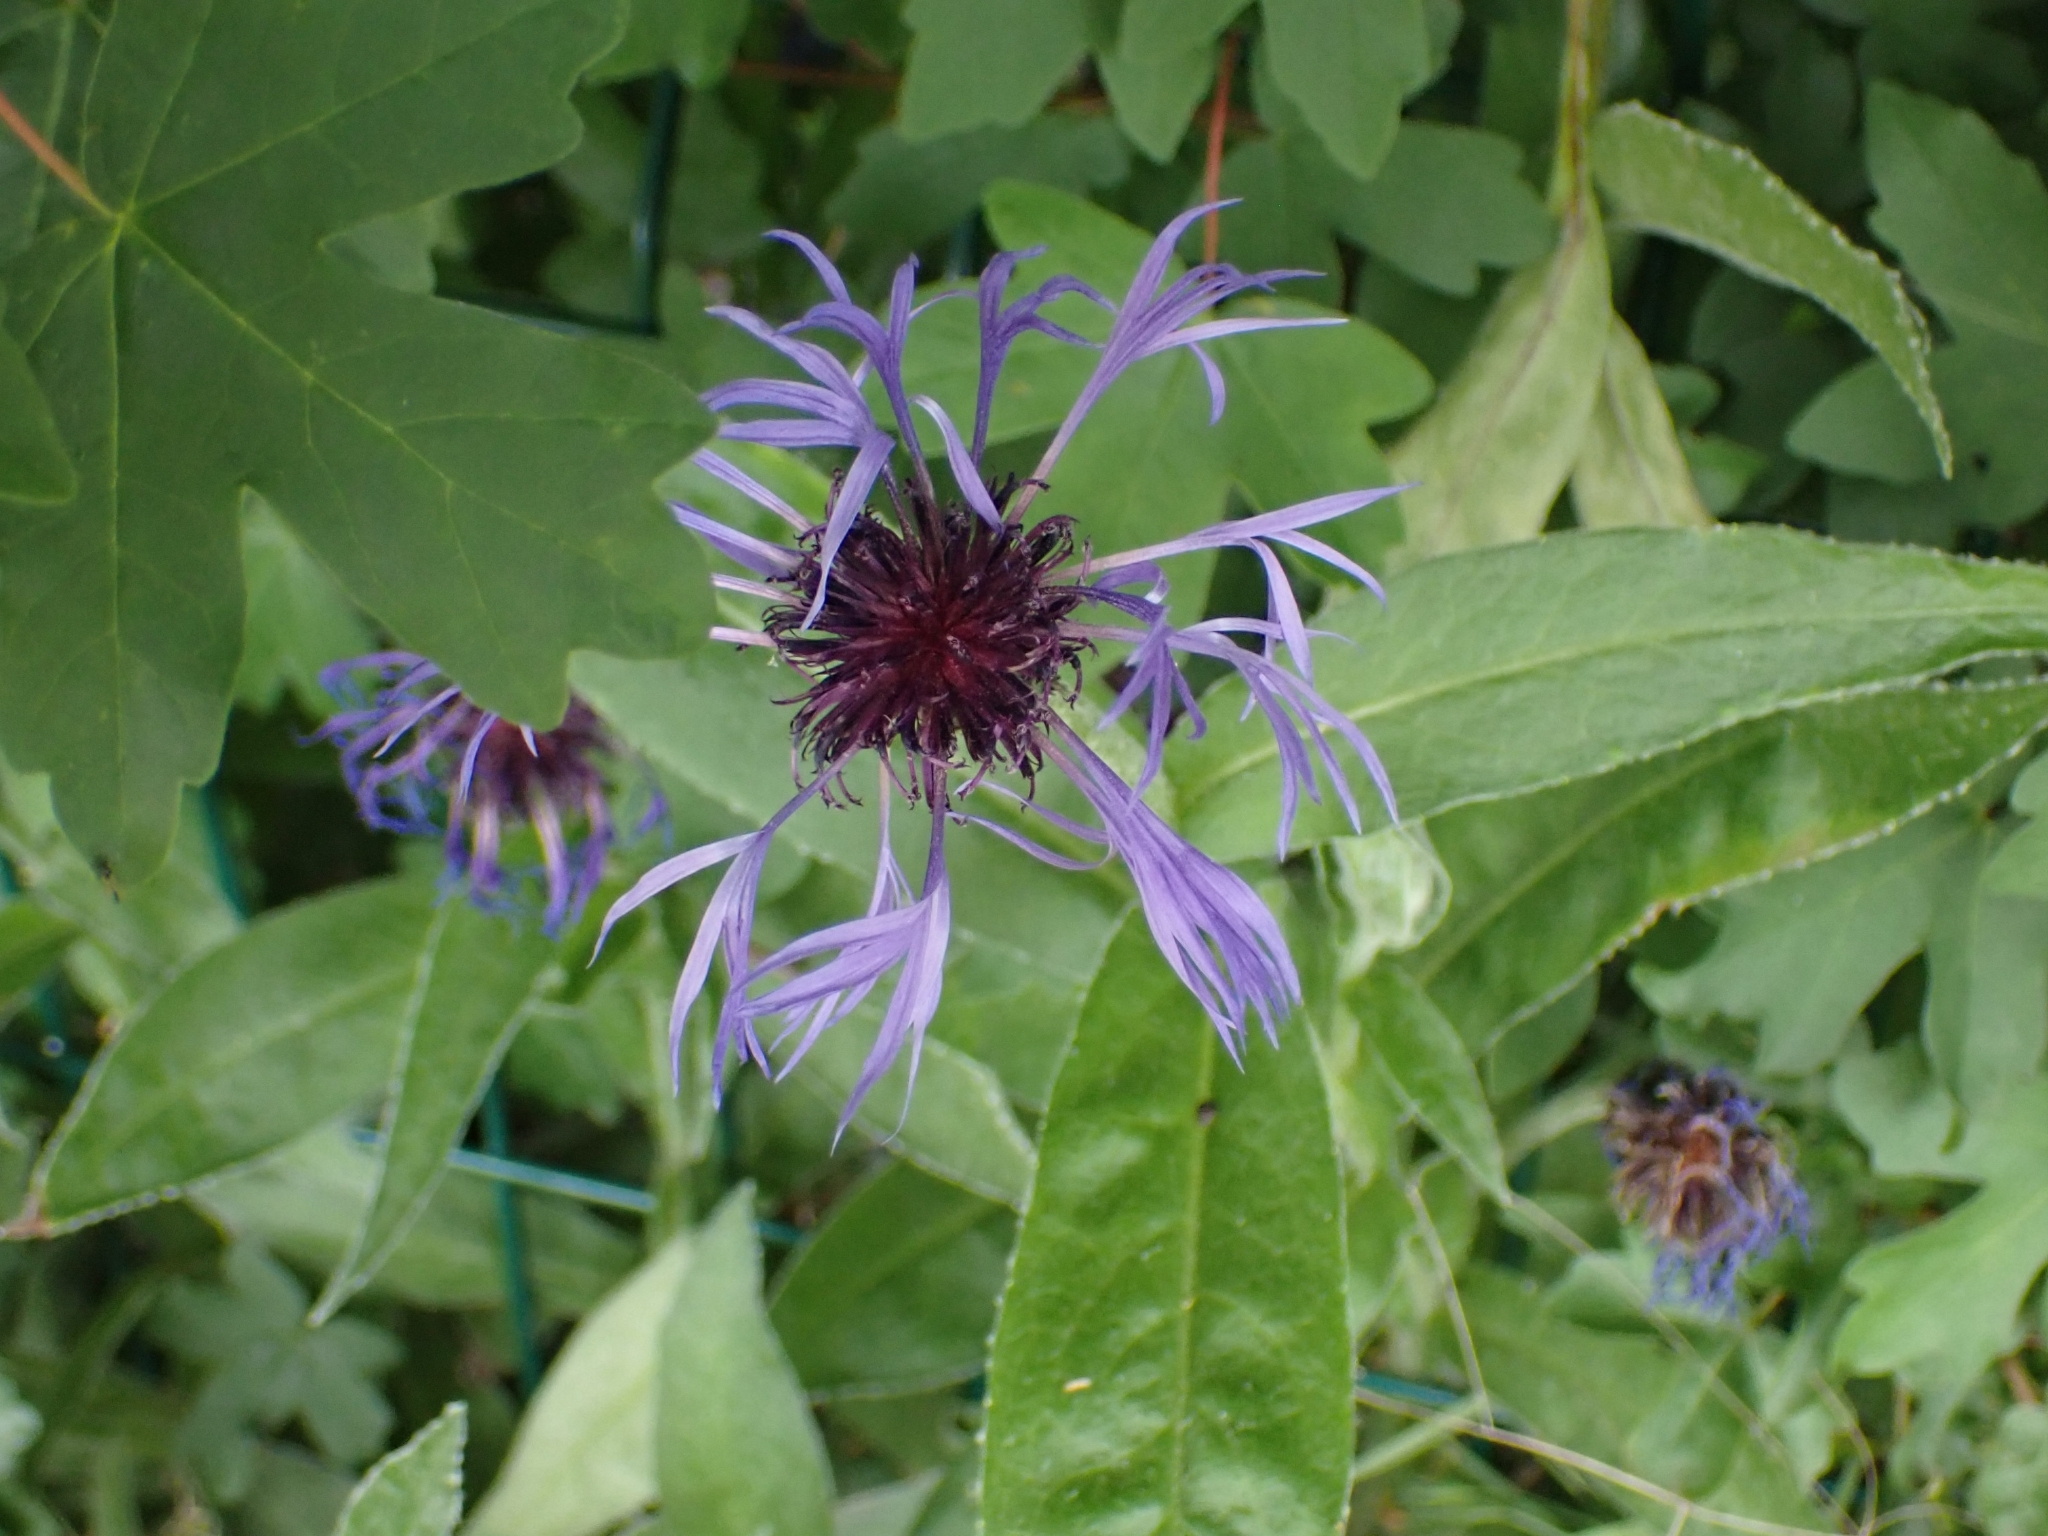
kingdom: Plantae
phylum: Tracheophyta
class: Magnoliopsida
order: Asterales
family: Asteraceae
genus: Centaurea
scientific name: Centaurea montana
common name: Perennial cornflower
